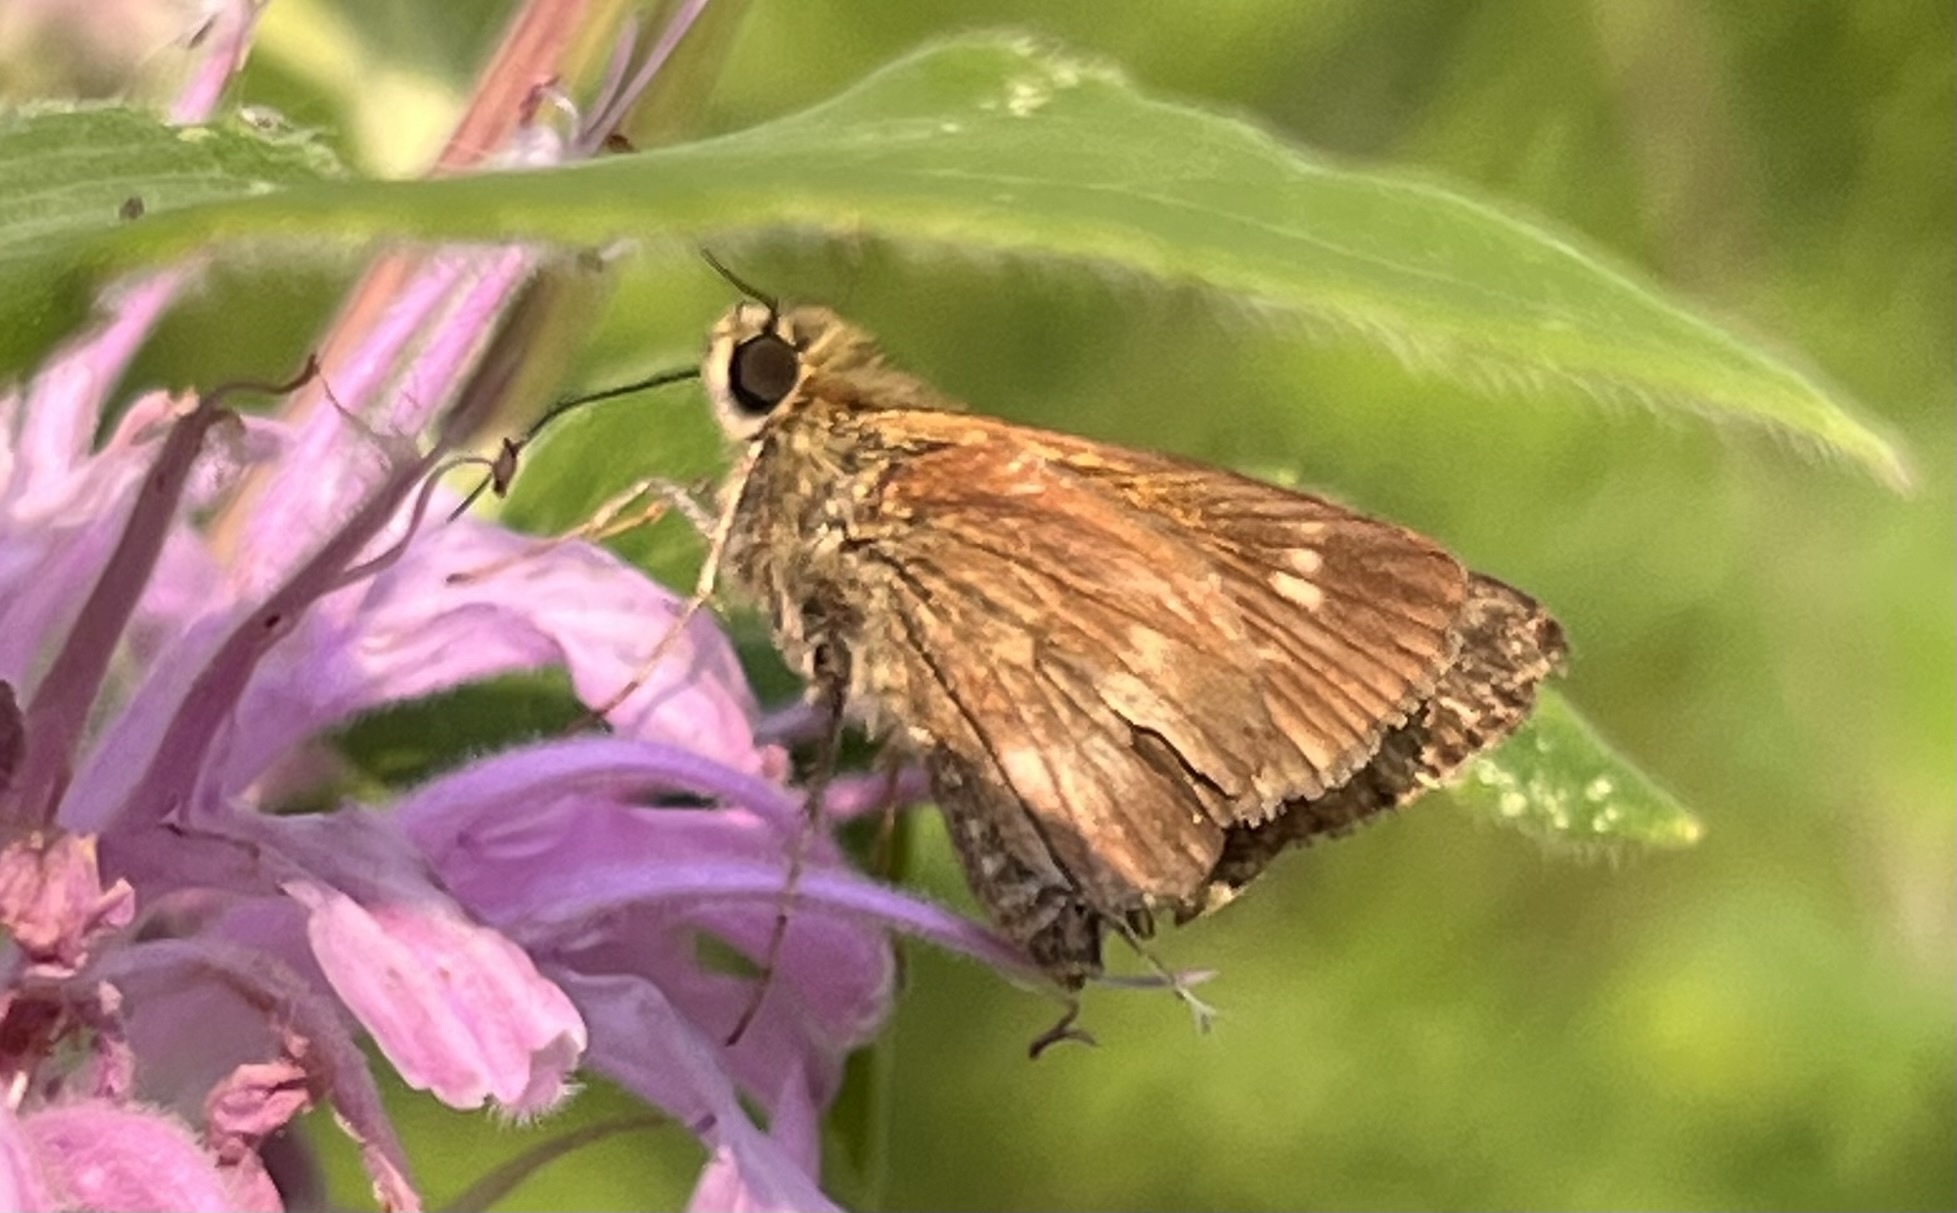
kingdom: Animalia
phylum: Arthropoda
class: Insecta
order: Lepidoptera
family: Hesperiidae
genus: Polites
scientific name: Polites egeremet
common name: Northern broken-dash
